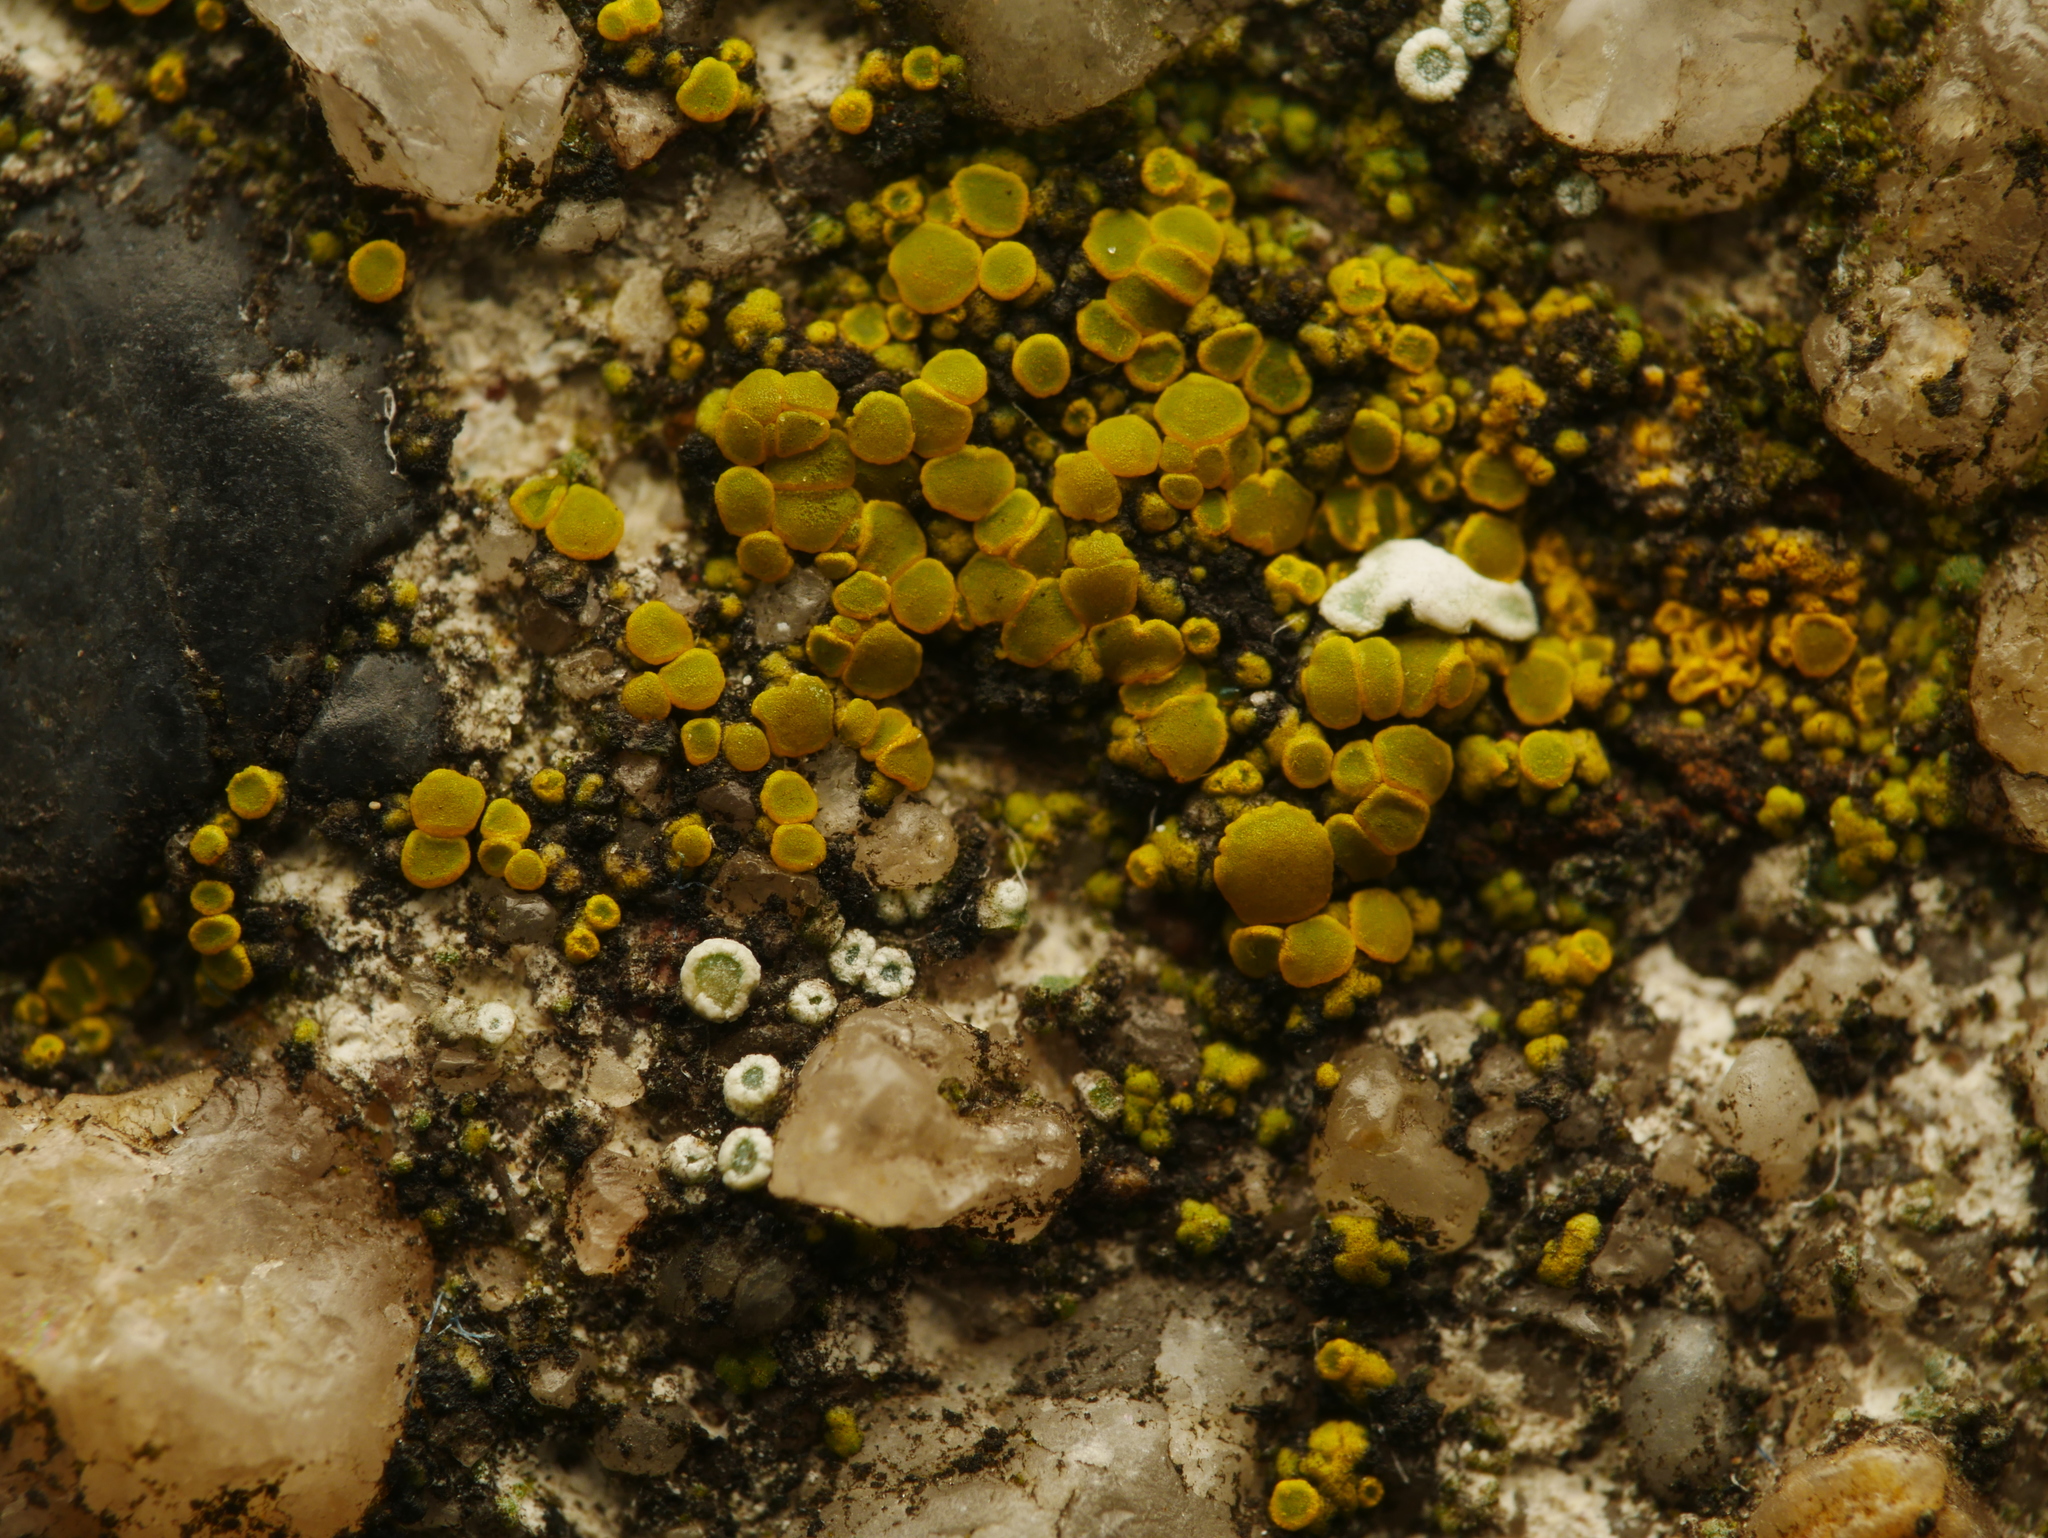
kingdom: Fungi
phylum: Ascomycota
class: Candelariomycetes
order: Candelariales
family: Candelariaceae
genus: Candelariella
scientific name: Candelariella aurella
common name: Hidden goldspeck lichen
